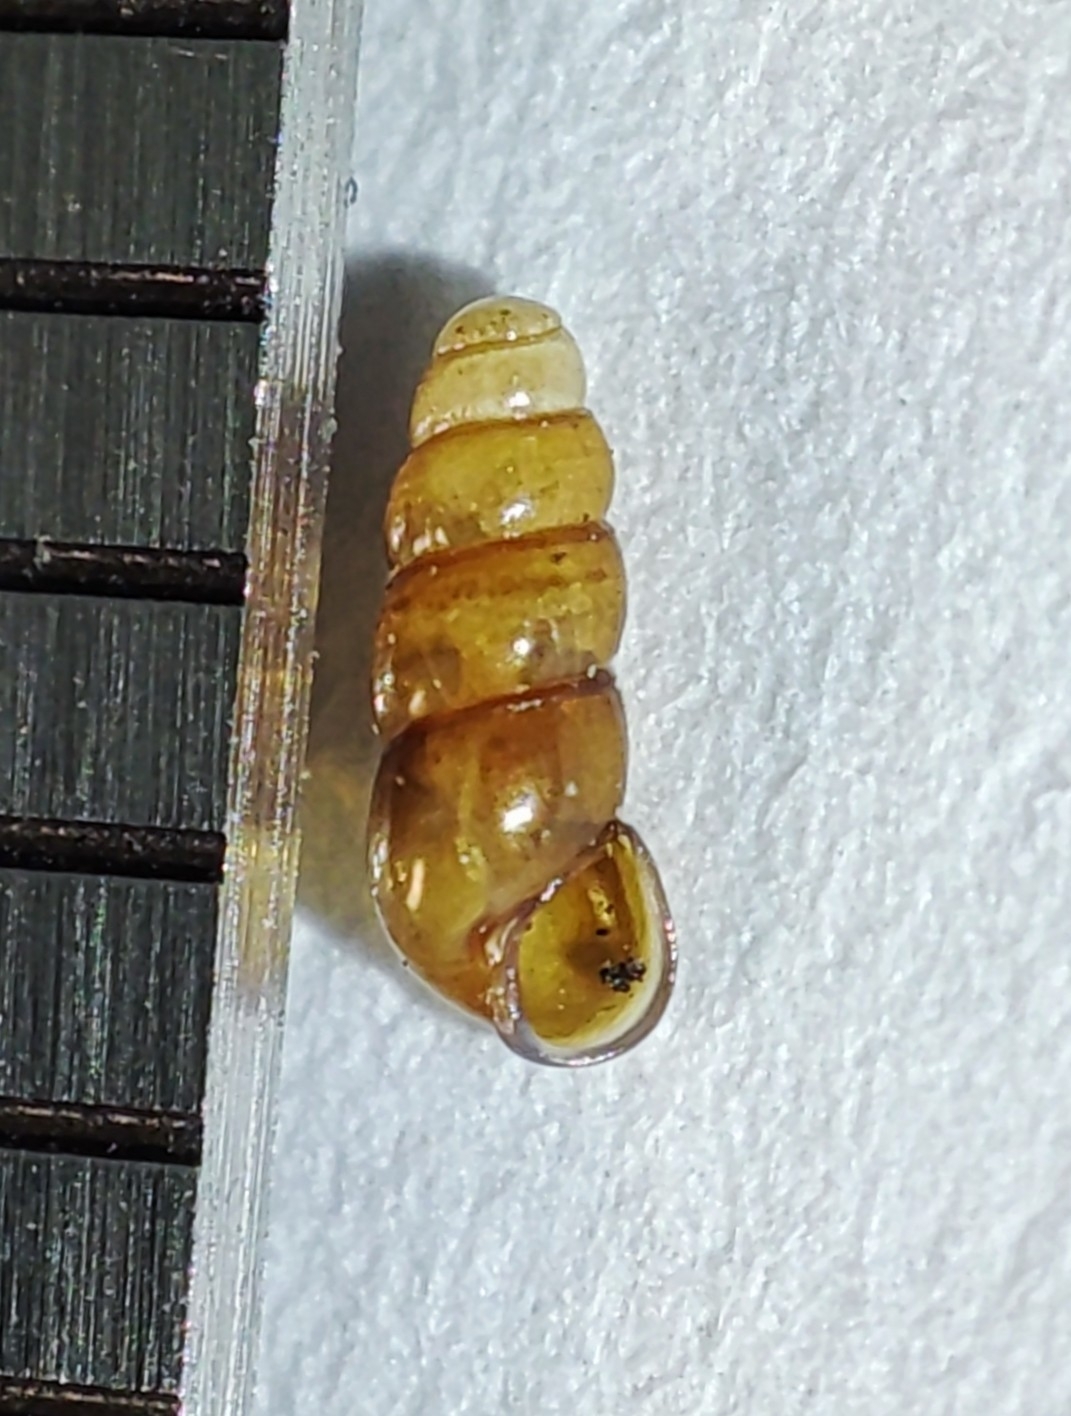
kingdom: Animalia
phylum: Mollusca
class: Gastropoda
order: Architaenioglossa
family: Aciculidae
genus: Platyla
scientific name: Platyla polita
